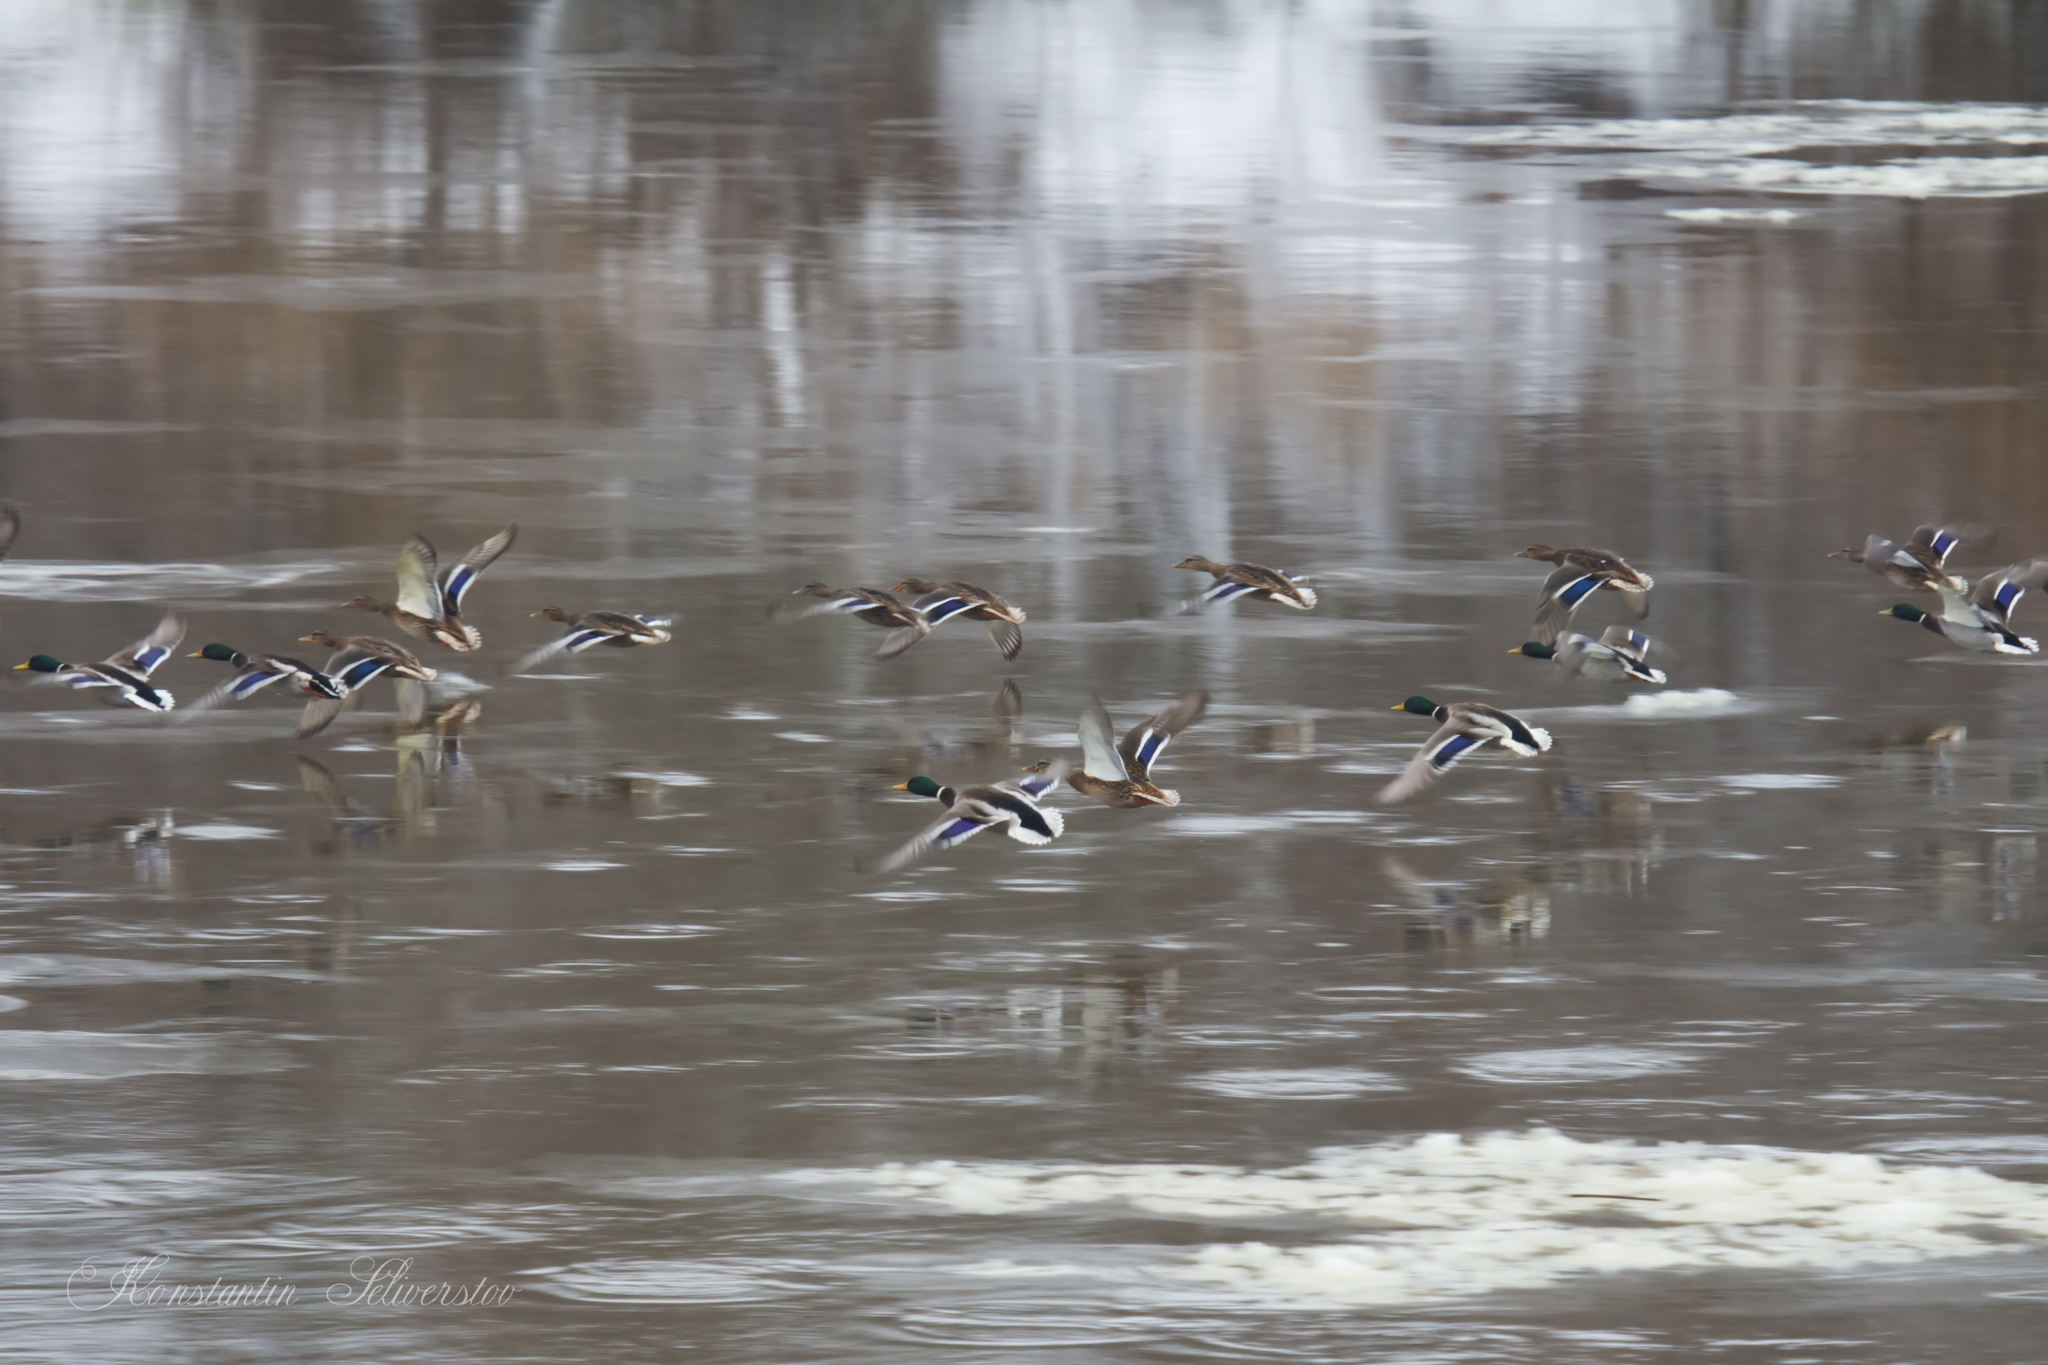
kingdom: Animalia
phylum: Chordata
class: Aves
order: Anseriformes
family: Anatidae
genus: Anas
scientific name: Anas platyrhynchos
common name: Mallard
